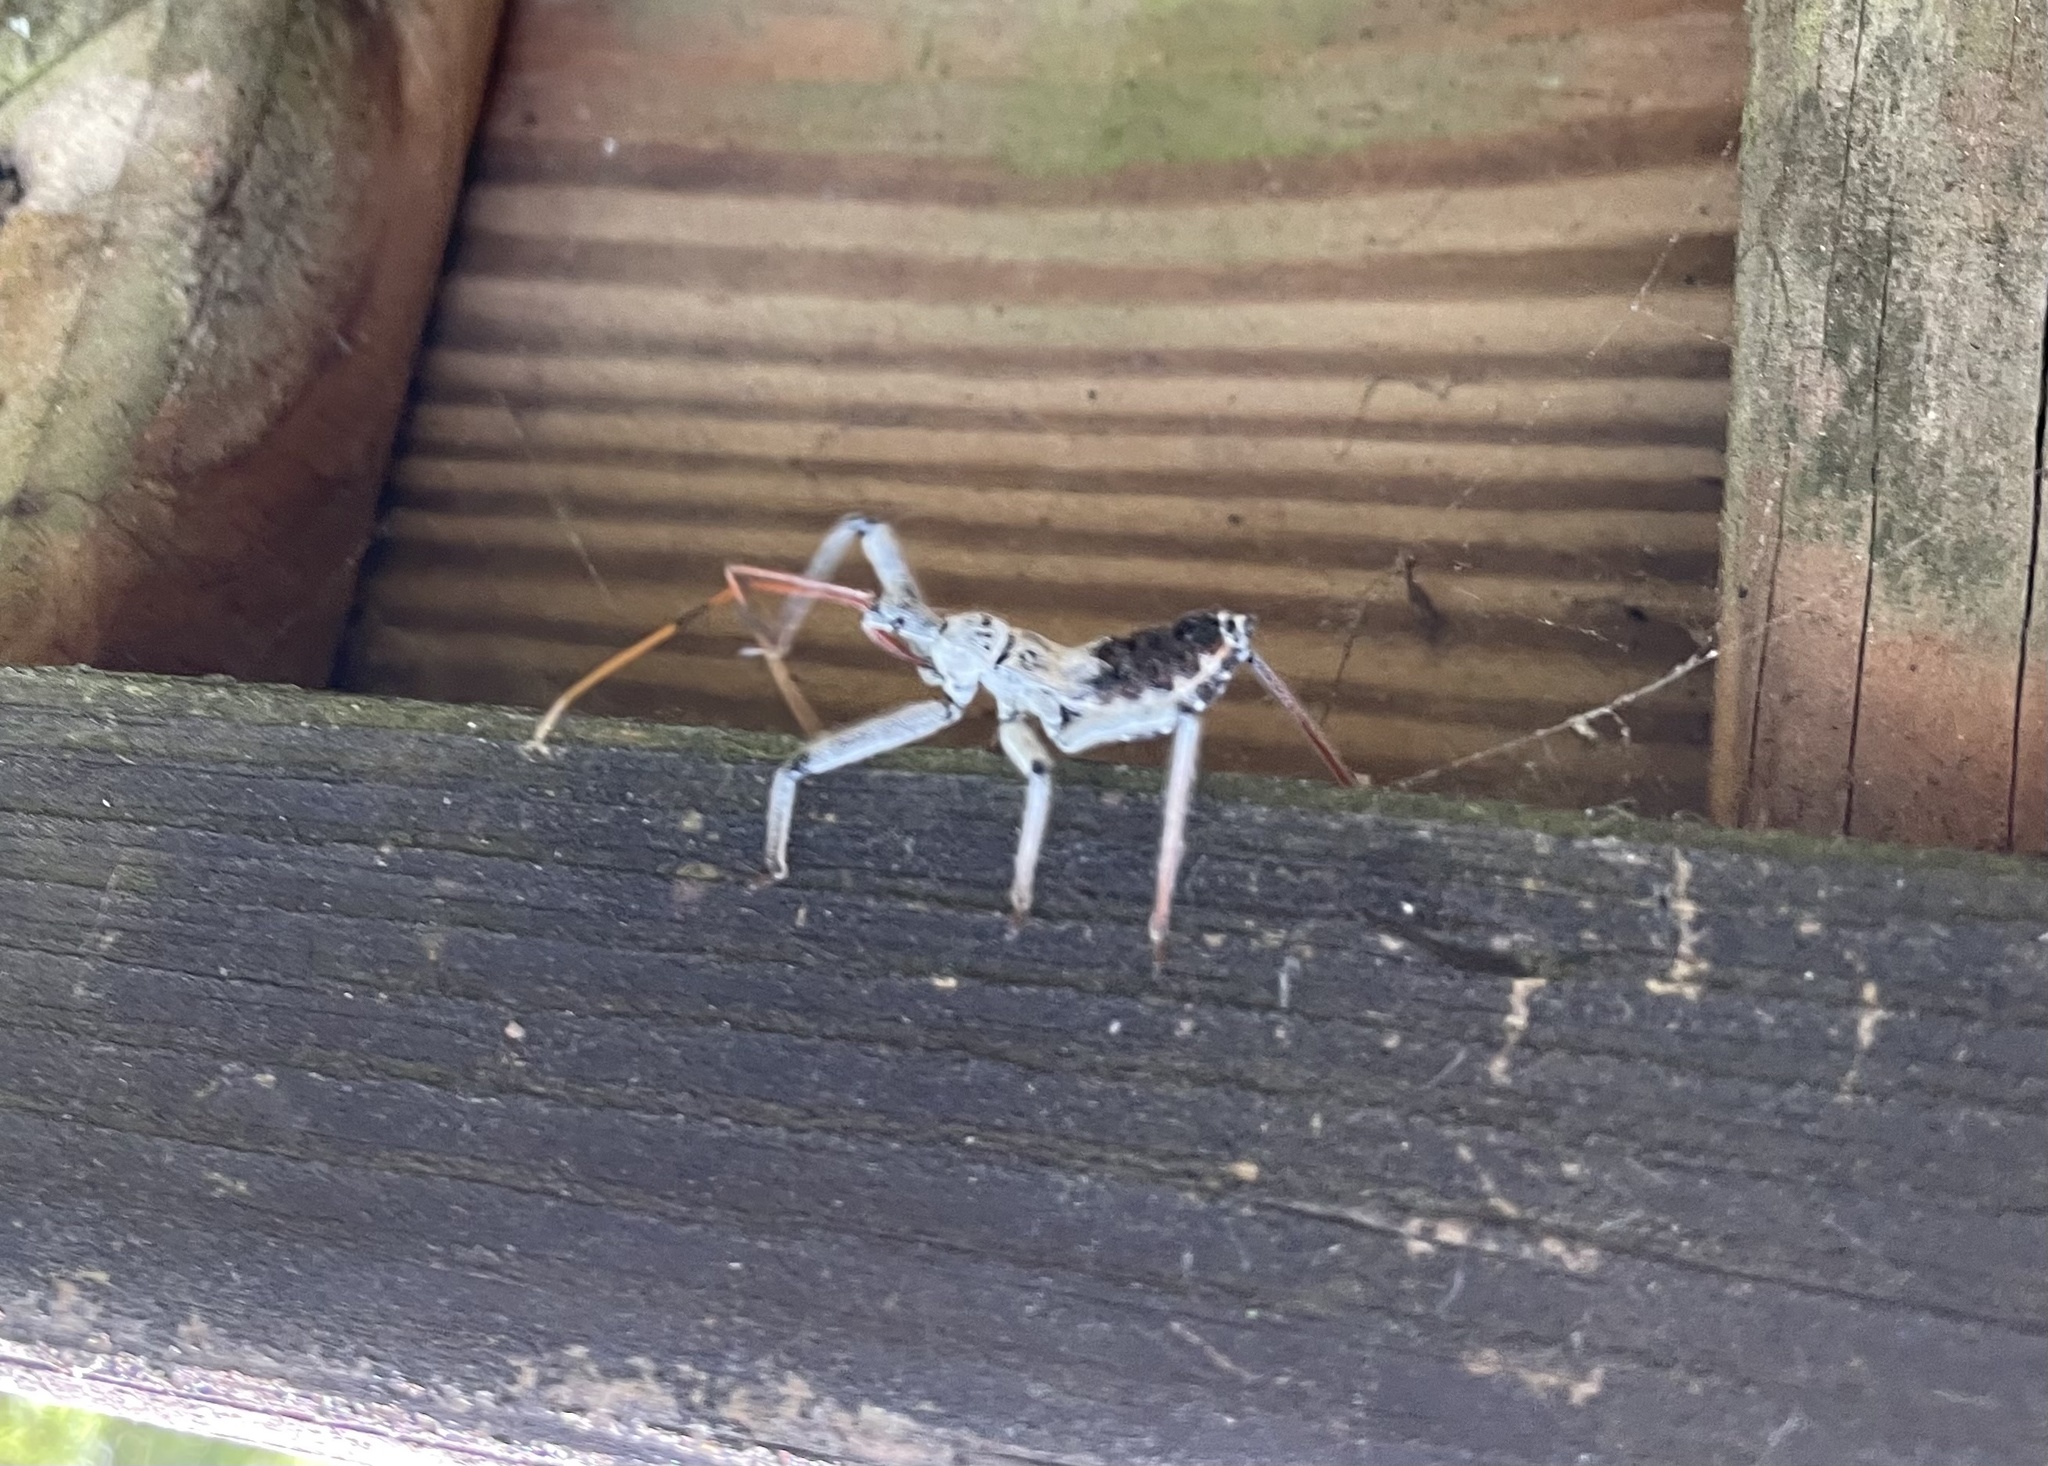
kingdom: Animalia
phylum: Arthropoda
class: Insecta
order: Hemiptera
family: Reduviidae
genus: Arilus
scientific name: Arilus cristatus
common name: North american wheel bug
